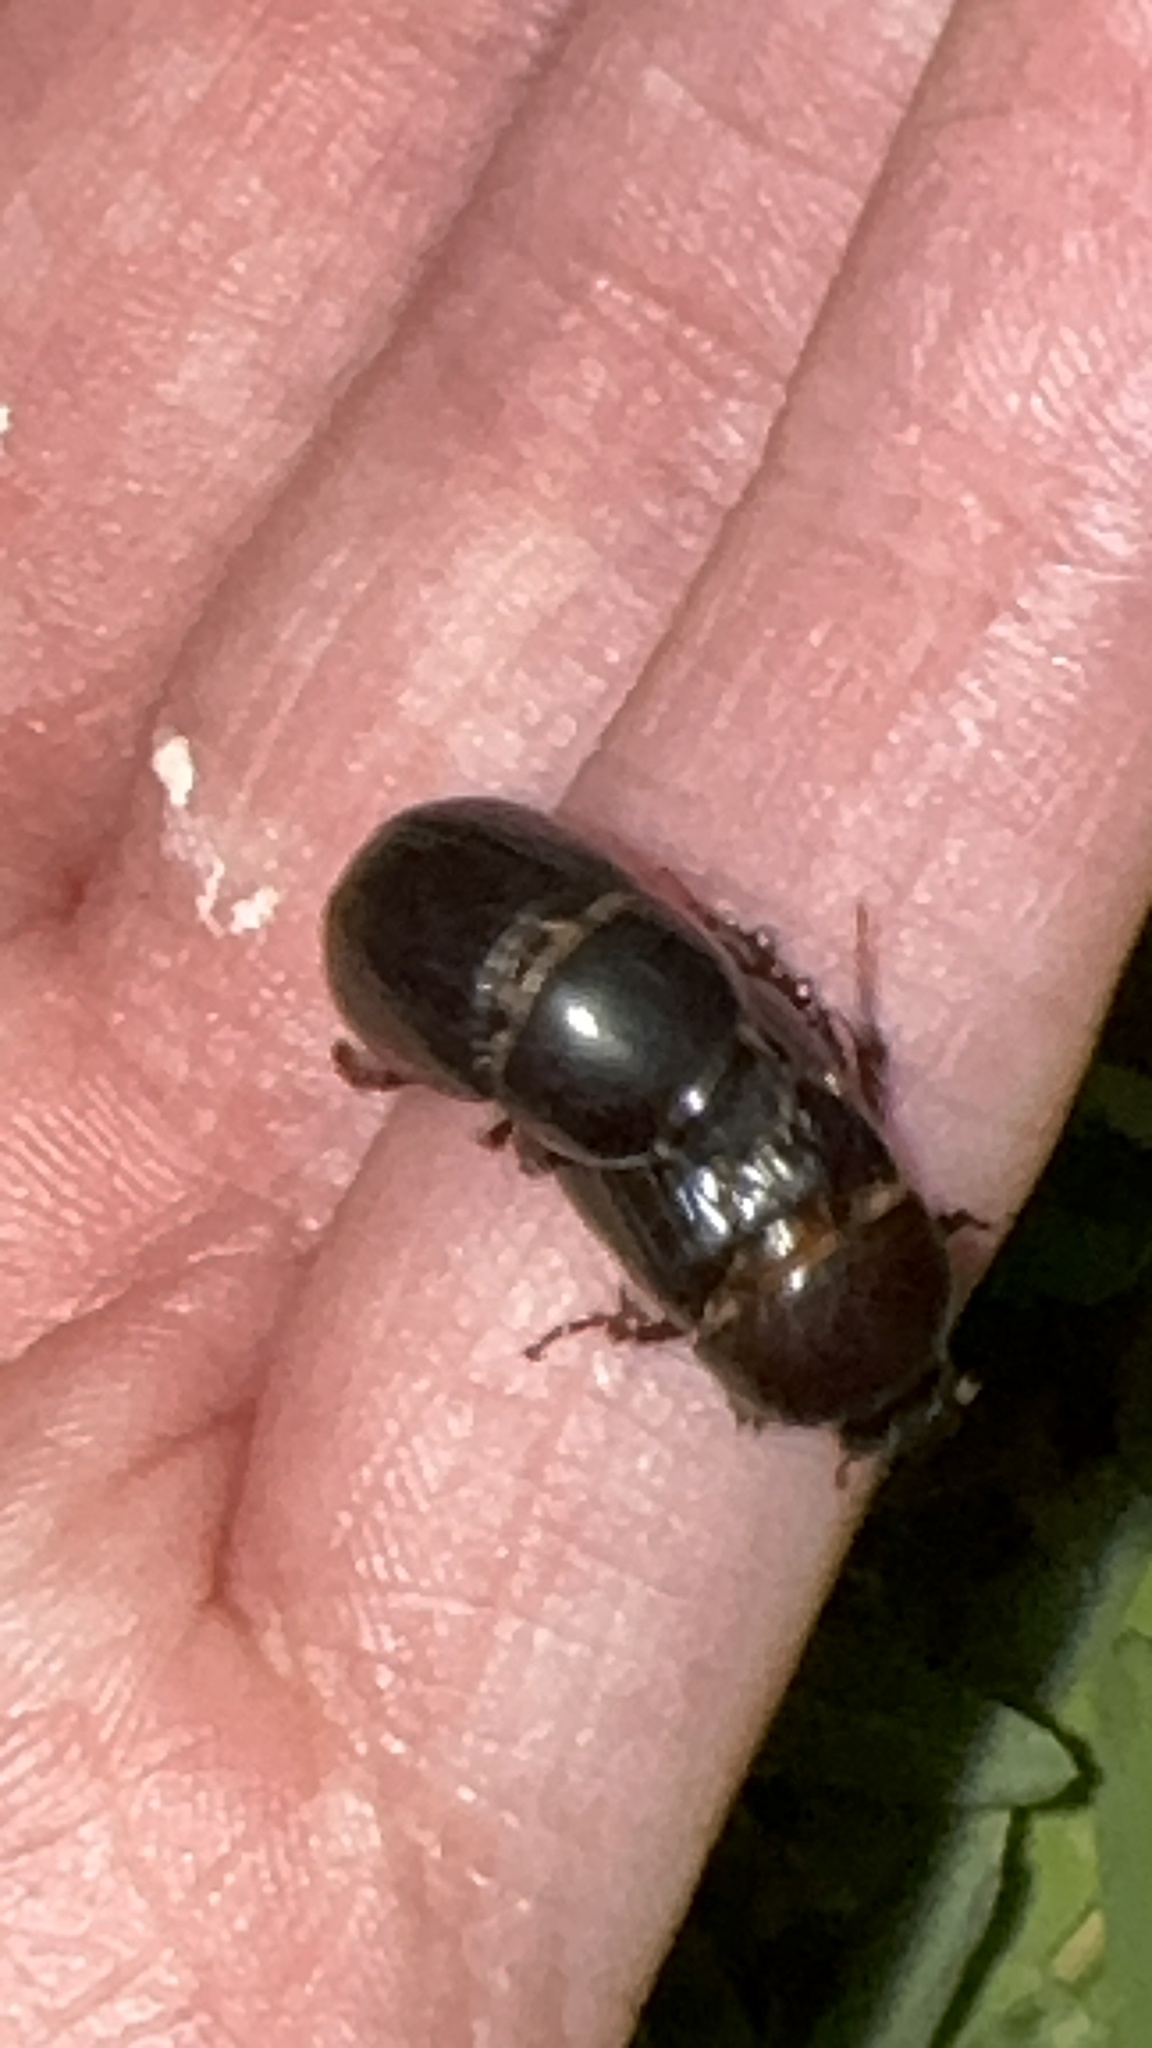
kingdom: Animalia
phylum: Arthropoda
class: Insecta
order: Coleoptera
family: Scarabaeidae
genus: Heteronychus
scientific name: Heteronychus arator
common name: African black beetle
